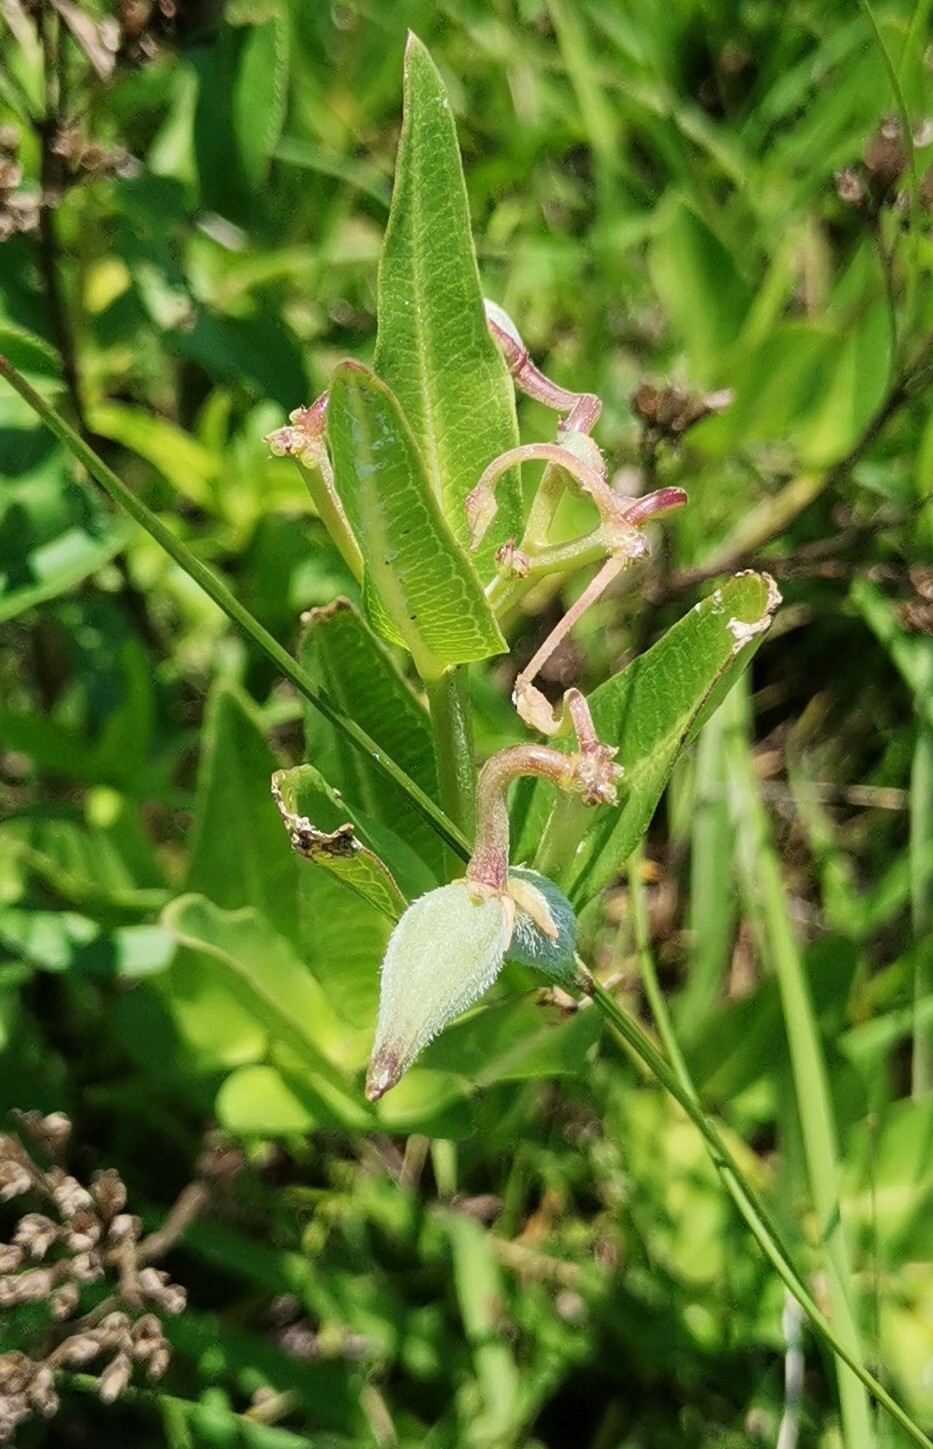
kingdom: Plantae
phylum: Tracheophyta
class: Magnoliopsida
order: Gentianales
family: Apocynaceae
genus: Asclepias
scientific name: Asclepias pratensis
